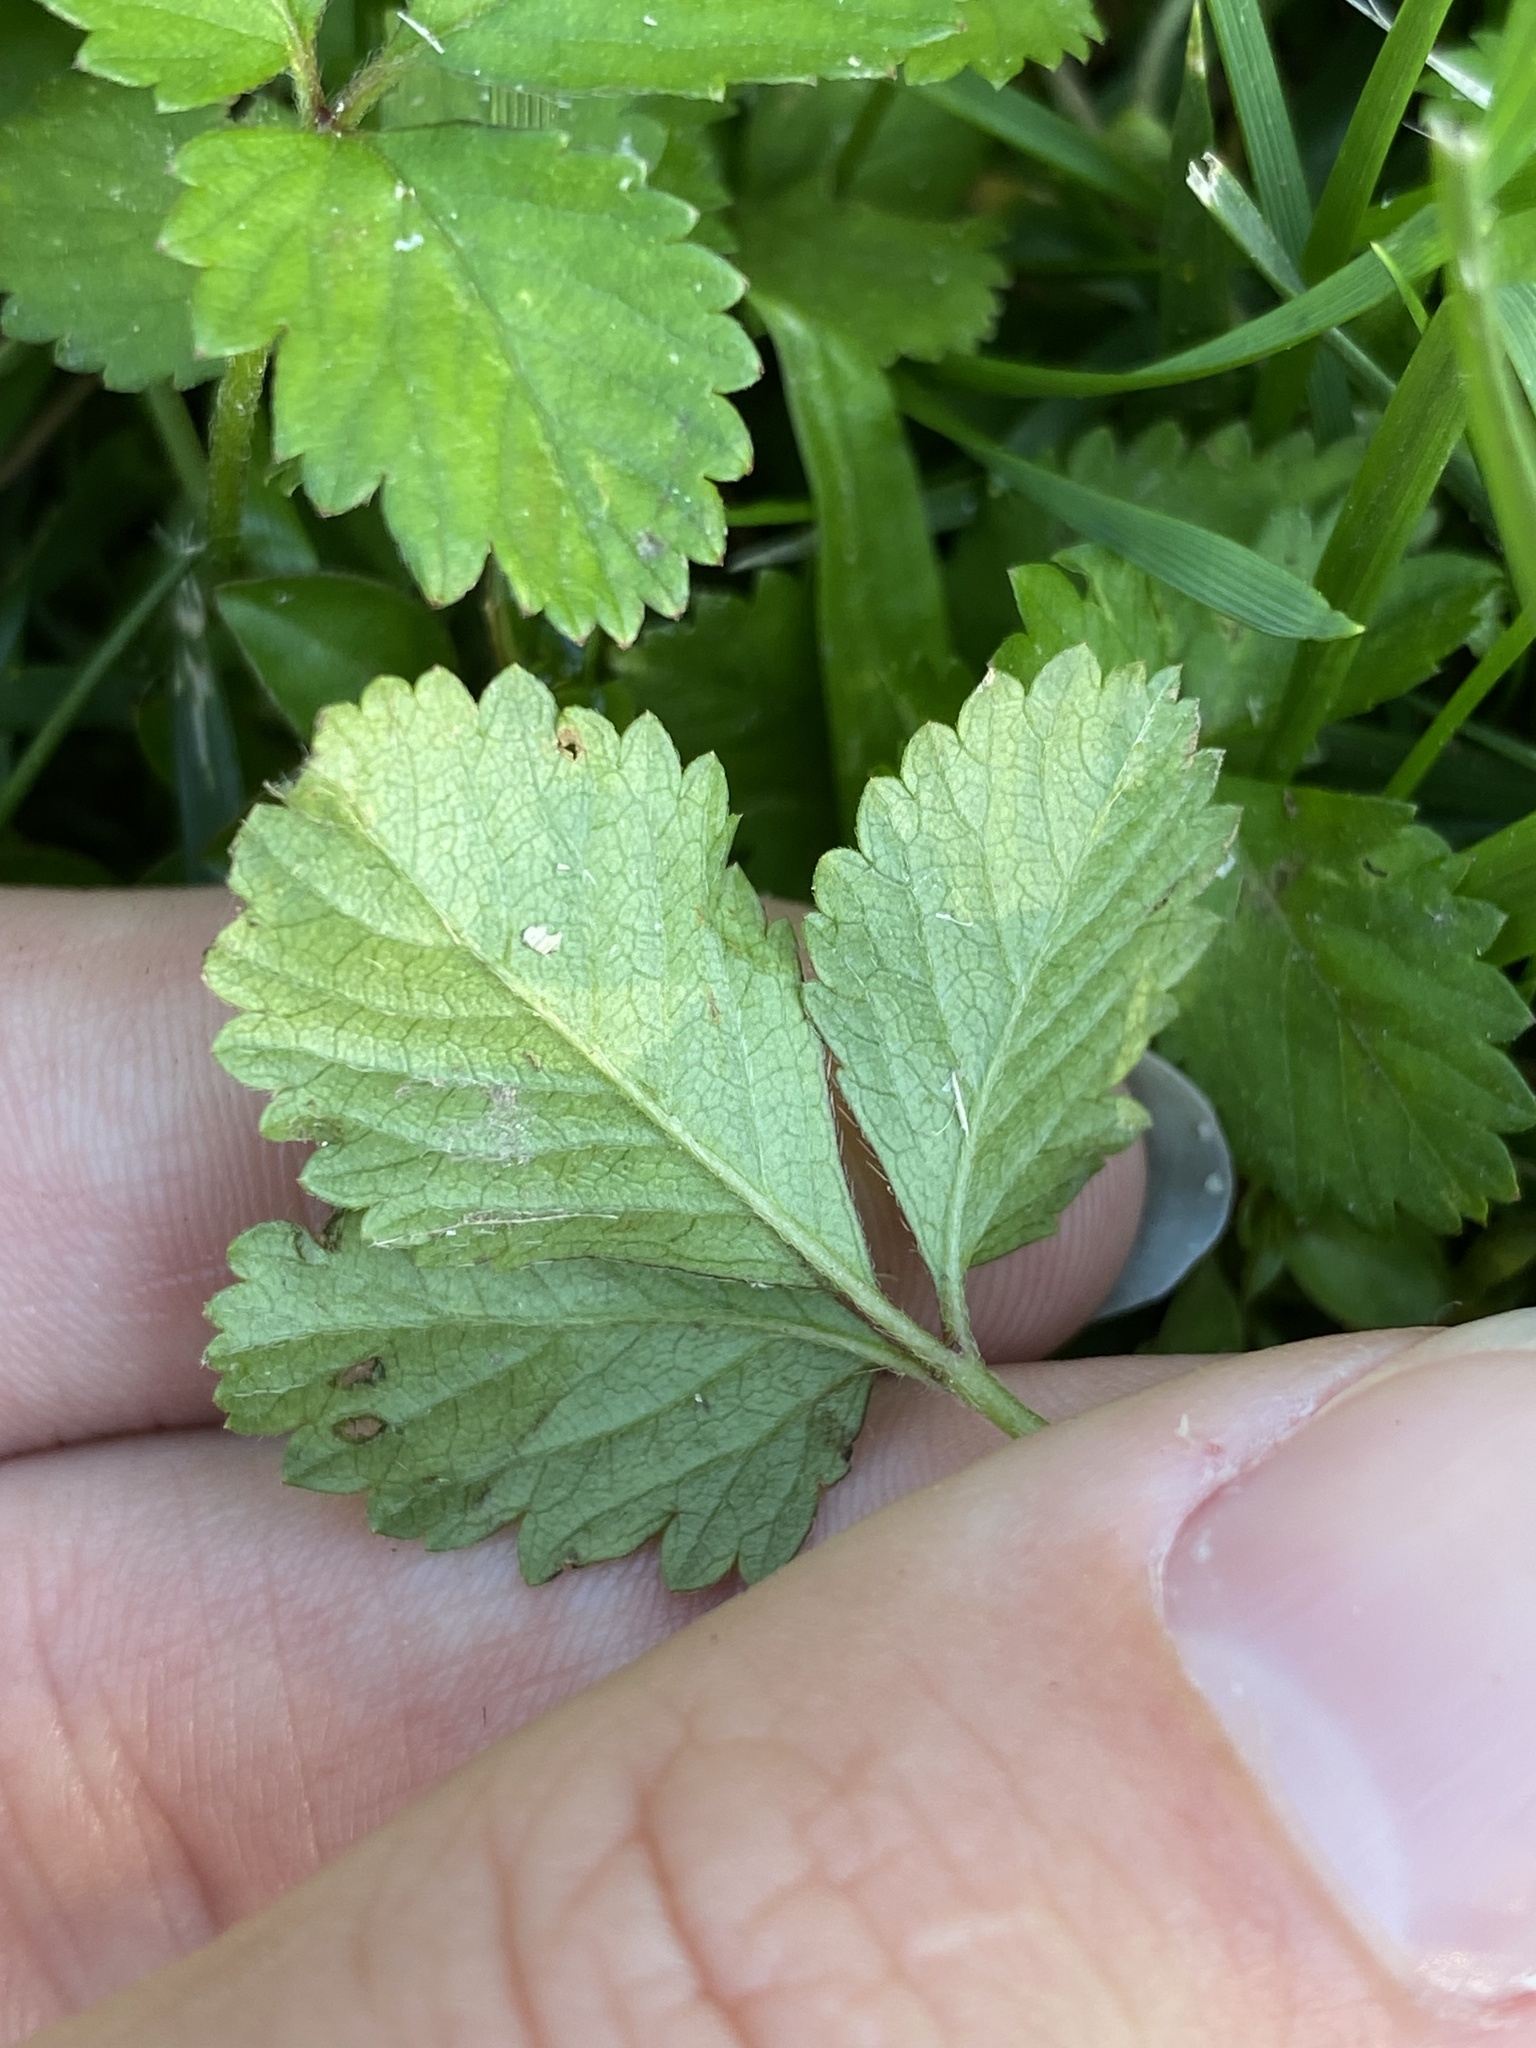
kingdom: Plantae
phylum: Tracheophyta
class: Magnoliopsida
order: Rosales
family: Rosaceae
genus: Potentilla
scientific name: Potentilla indica
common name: Yellow-flowered strawberry
